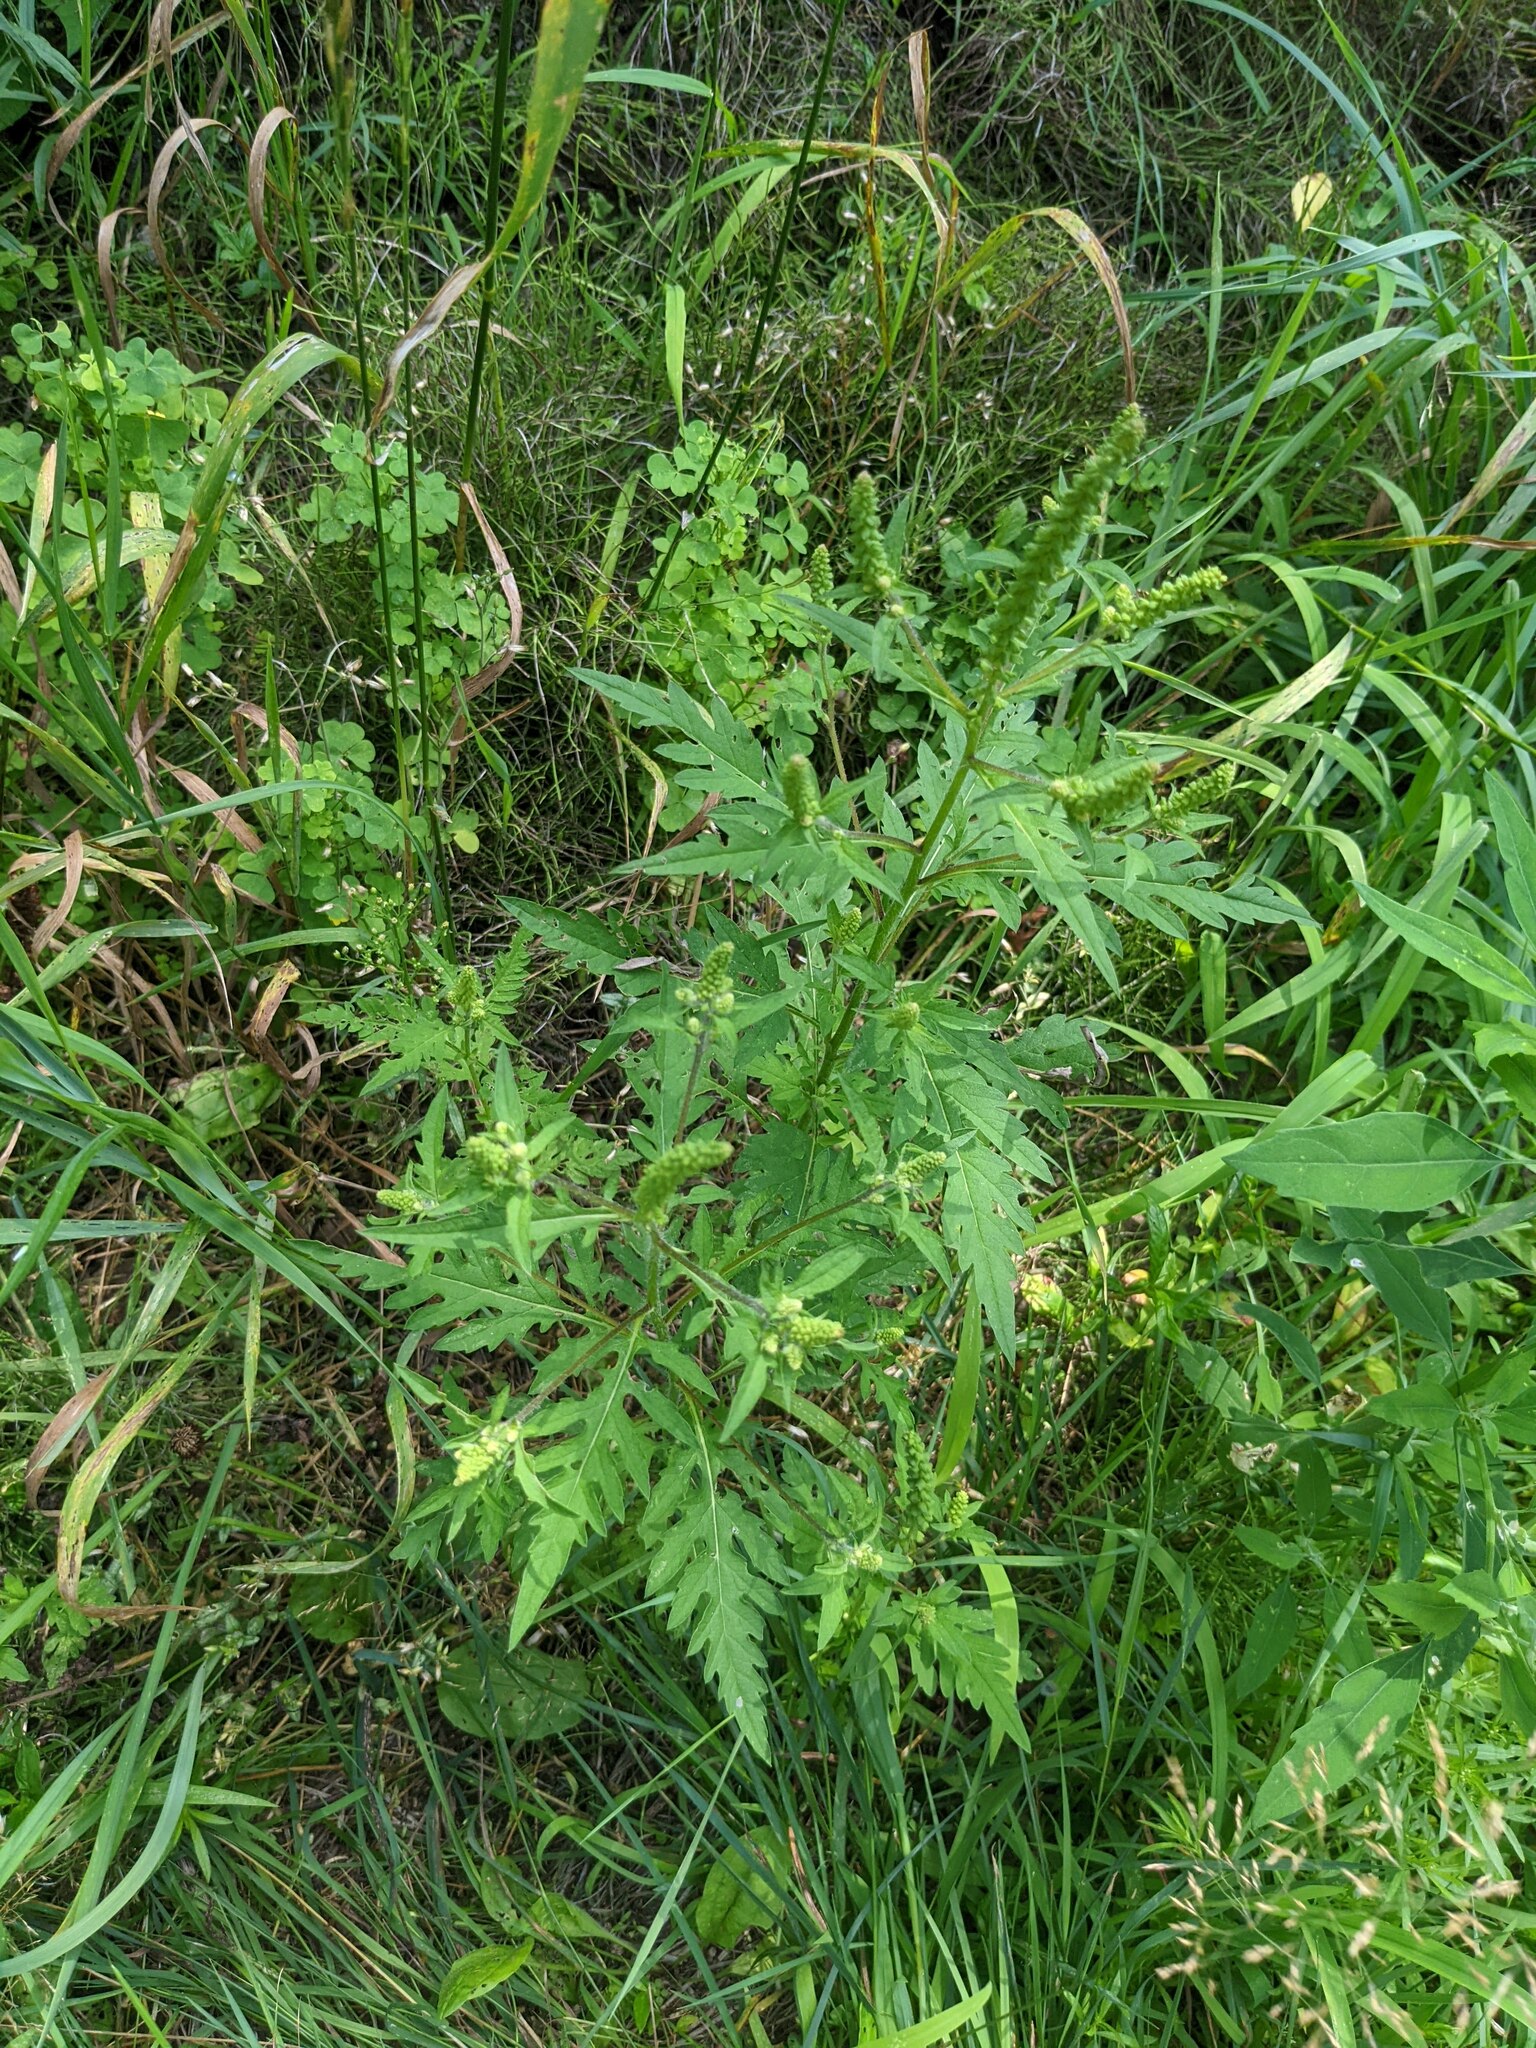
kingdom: Plantae
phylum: Tracheophyta
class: Magnoliopsida
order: Asterales
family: Asteraceae
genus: Ambrosia
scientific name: Ambrosia artemisiifolia
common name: Annual ragweed
